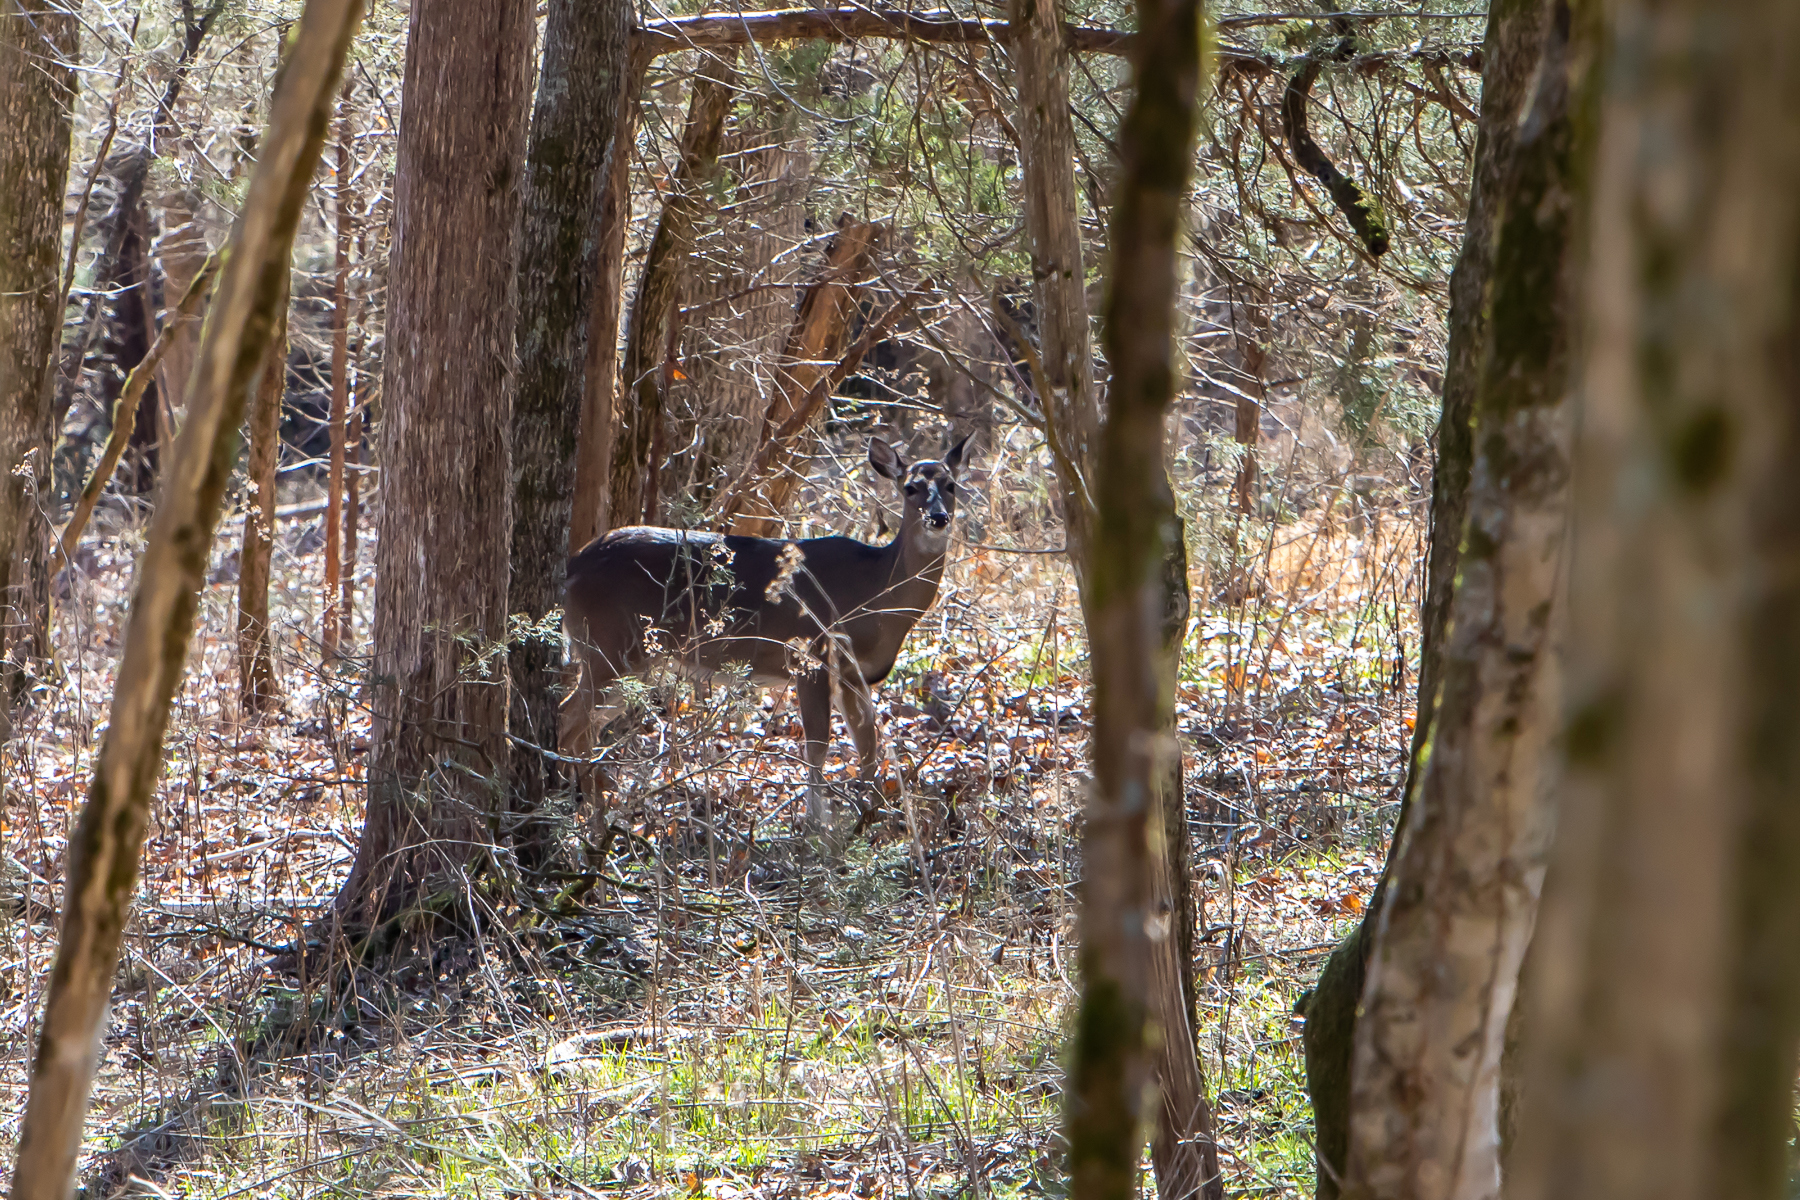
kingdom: Animalia
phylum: Chordata
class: Mammalia
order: Artiodactyla
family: Cervidae
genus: Odocoileus
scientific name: Odocoileus virginianus
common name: White-tailed deer
